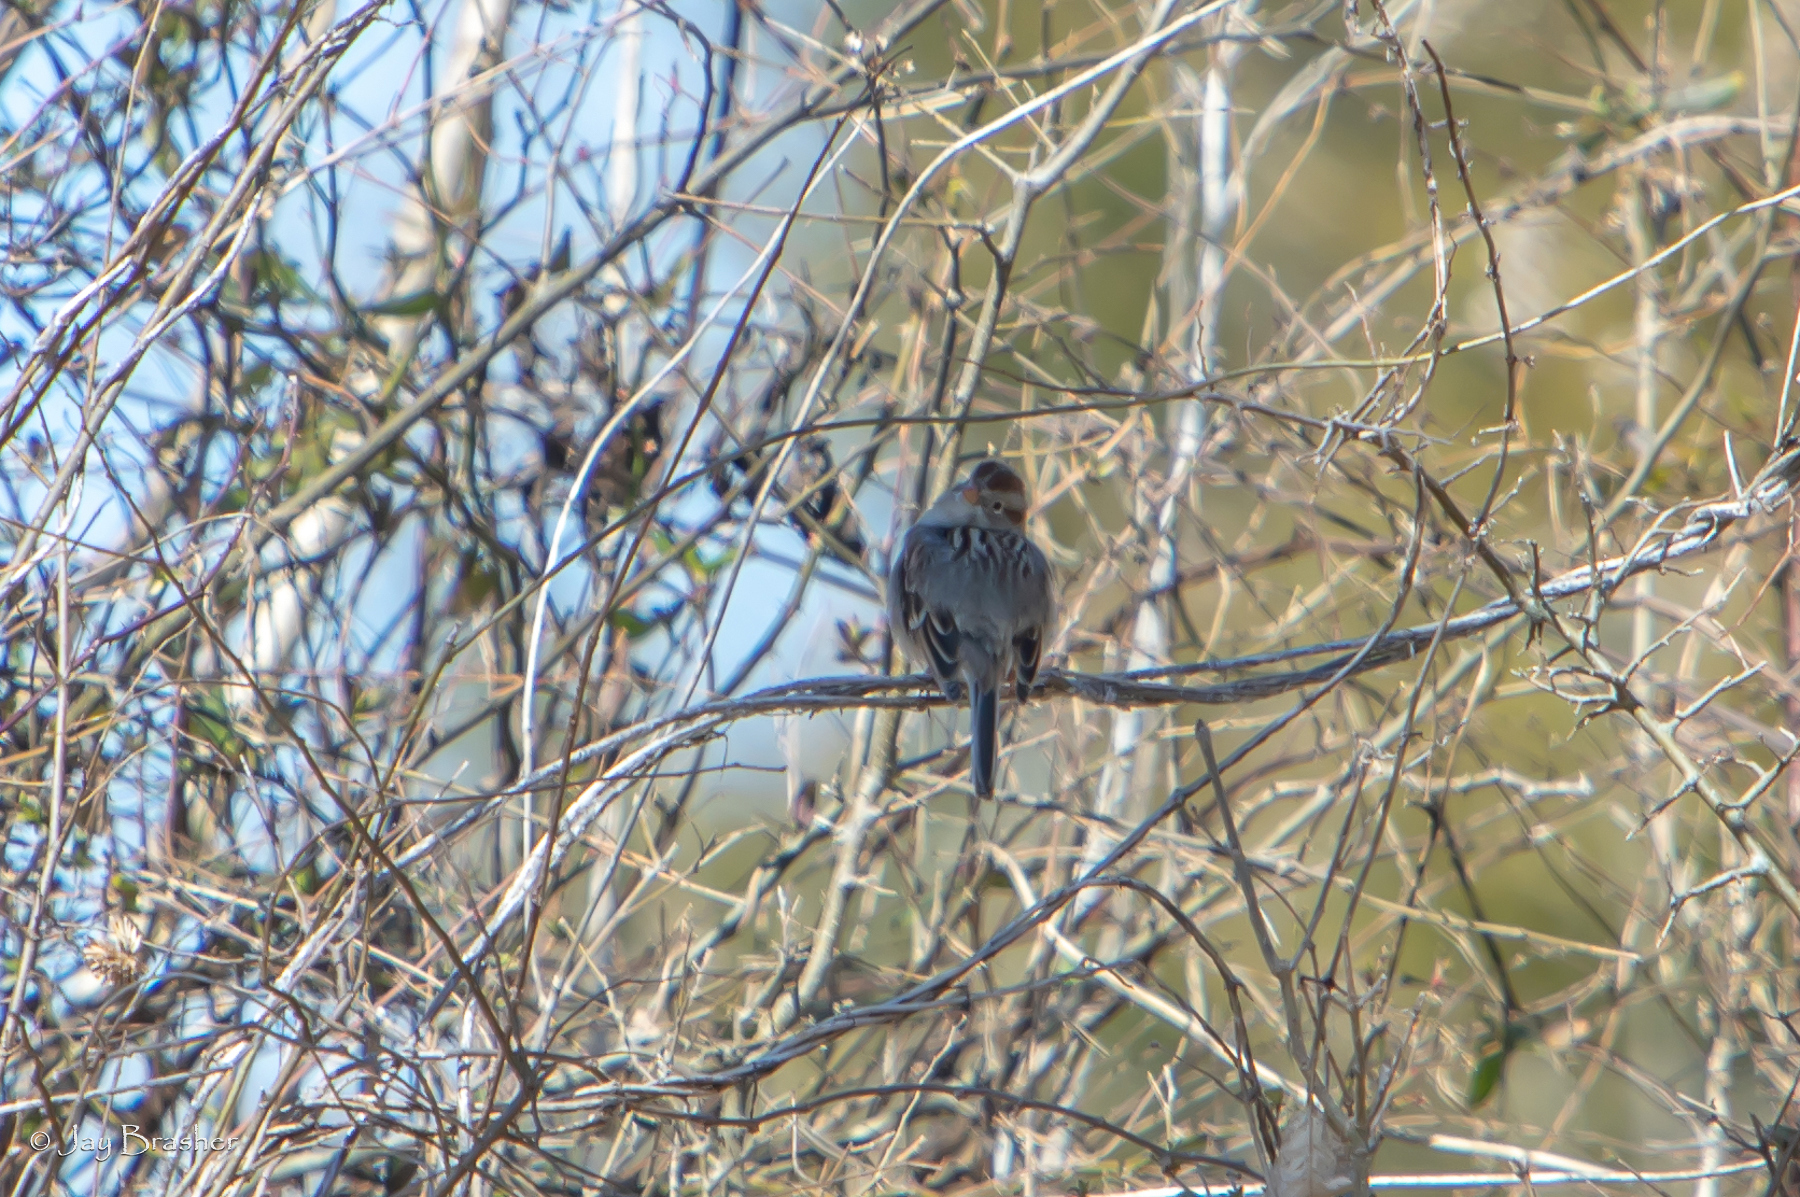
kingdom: Animalia
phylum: Chordata
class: Aves
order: Passeriformes
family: Passerellidae
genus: Spizella
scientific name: Spizella pusilla
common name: Field sparrow
